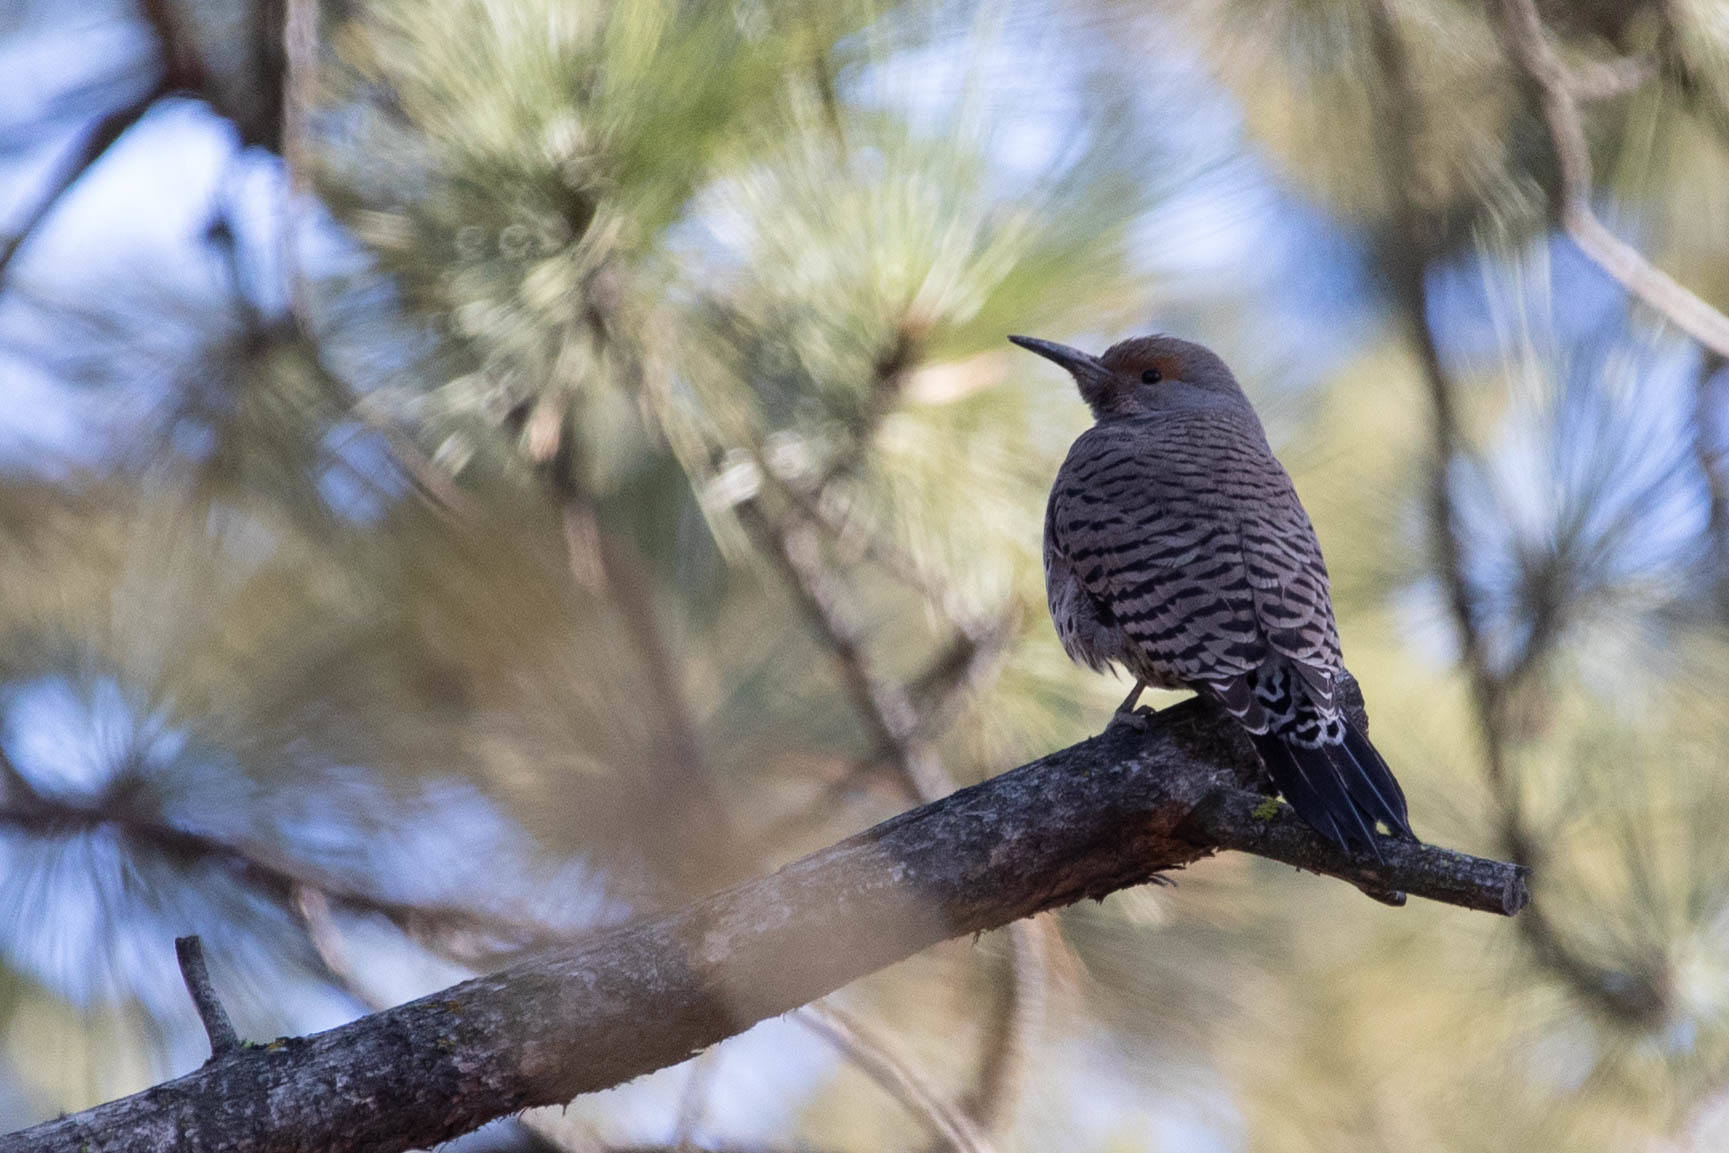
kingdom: Animalia
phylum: Chordata
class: Aves
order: Piciformes
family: Picidae
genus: Colaptes
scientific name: Colaptes auratus
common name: Northern flicker
